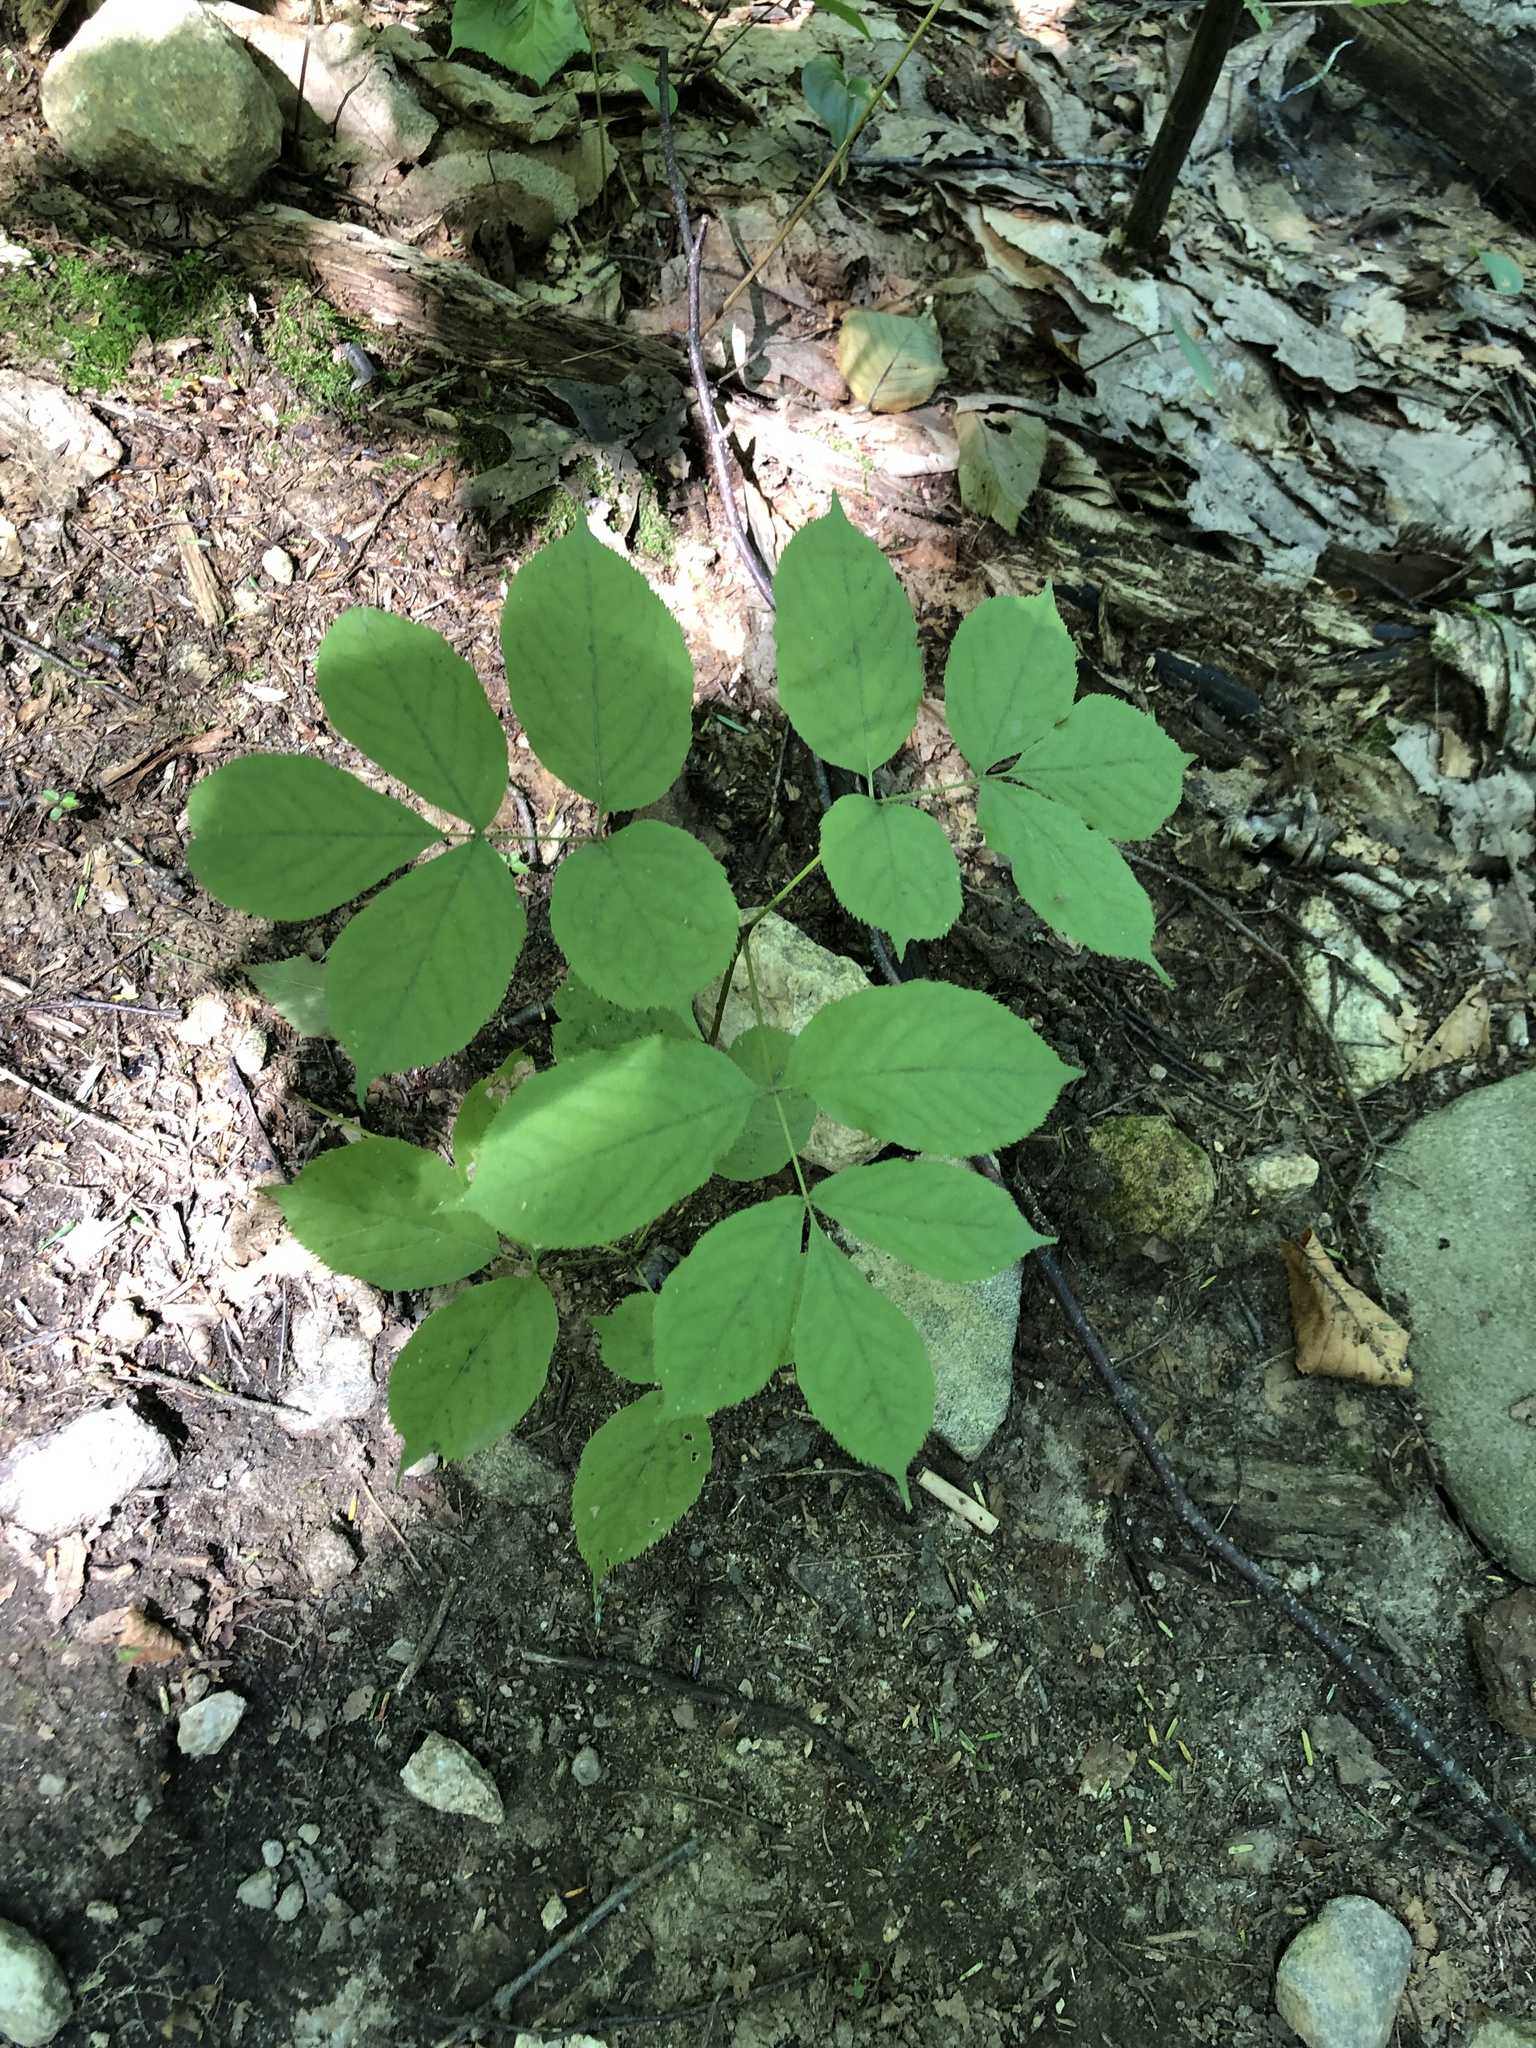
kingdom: Plantae
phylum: Tracheophyta
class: Magnoliopsida
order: Apiales
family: Araliaceae
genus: Aralia
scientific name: Aralia nudicaulis
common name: Wild sarsaparilla
